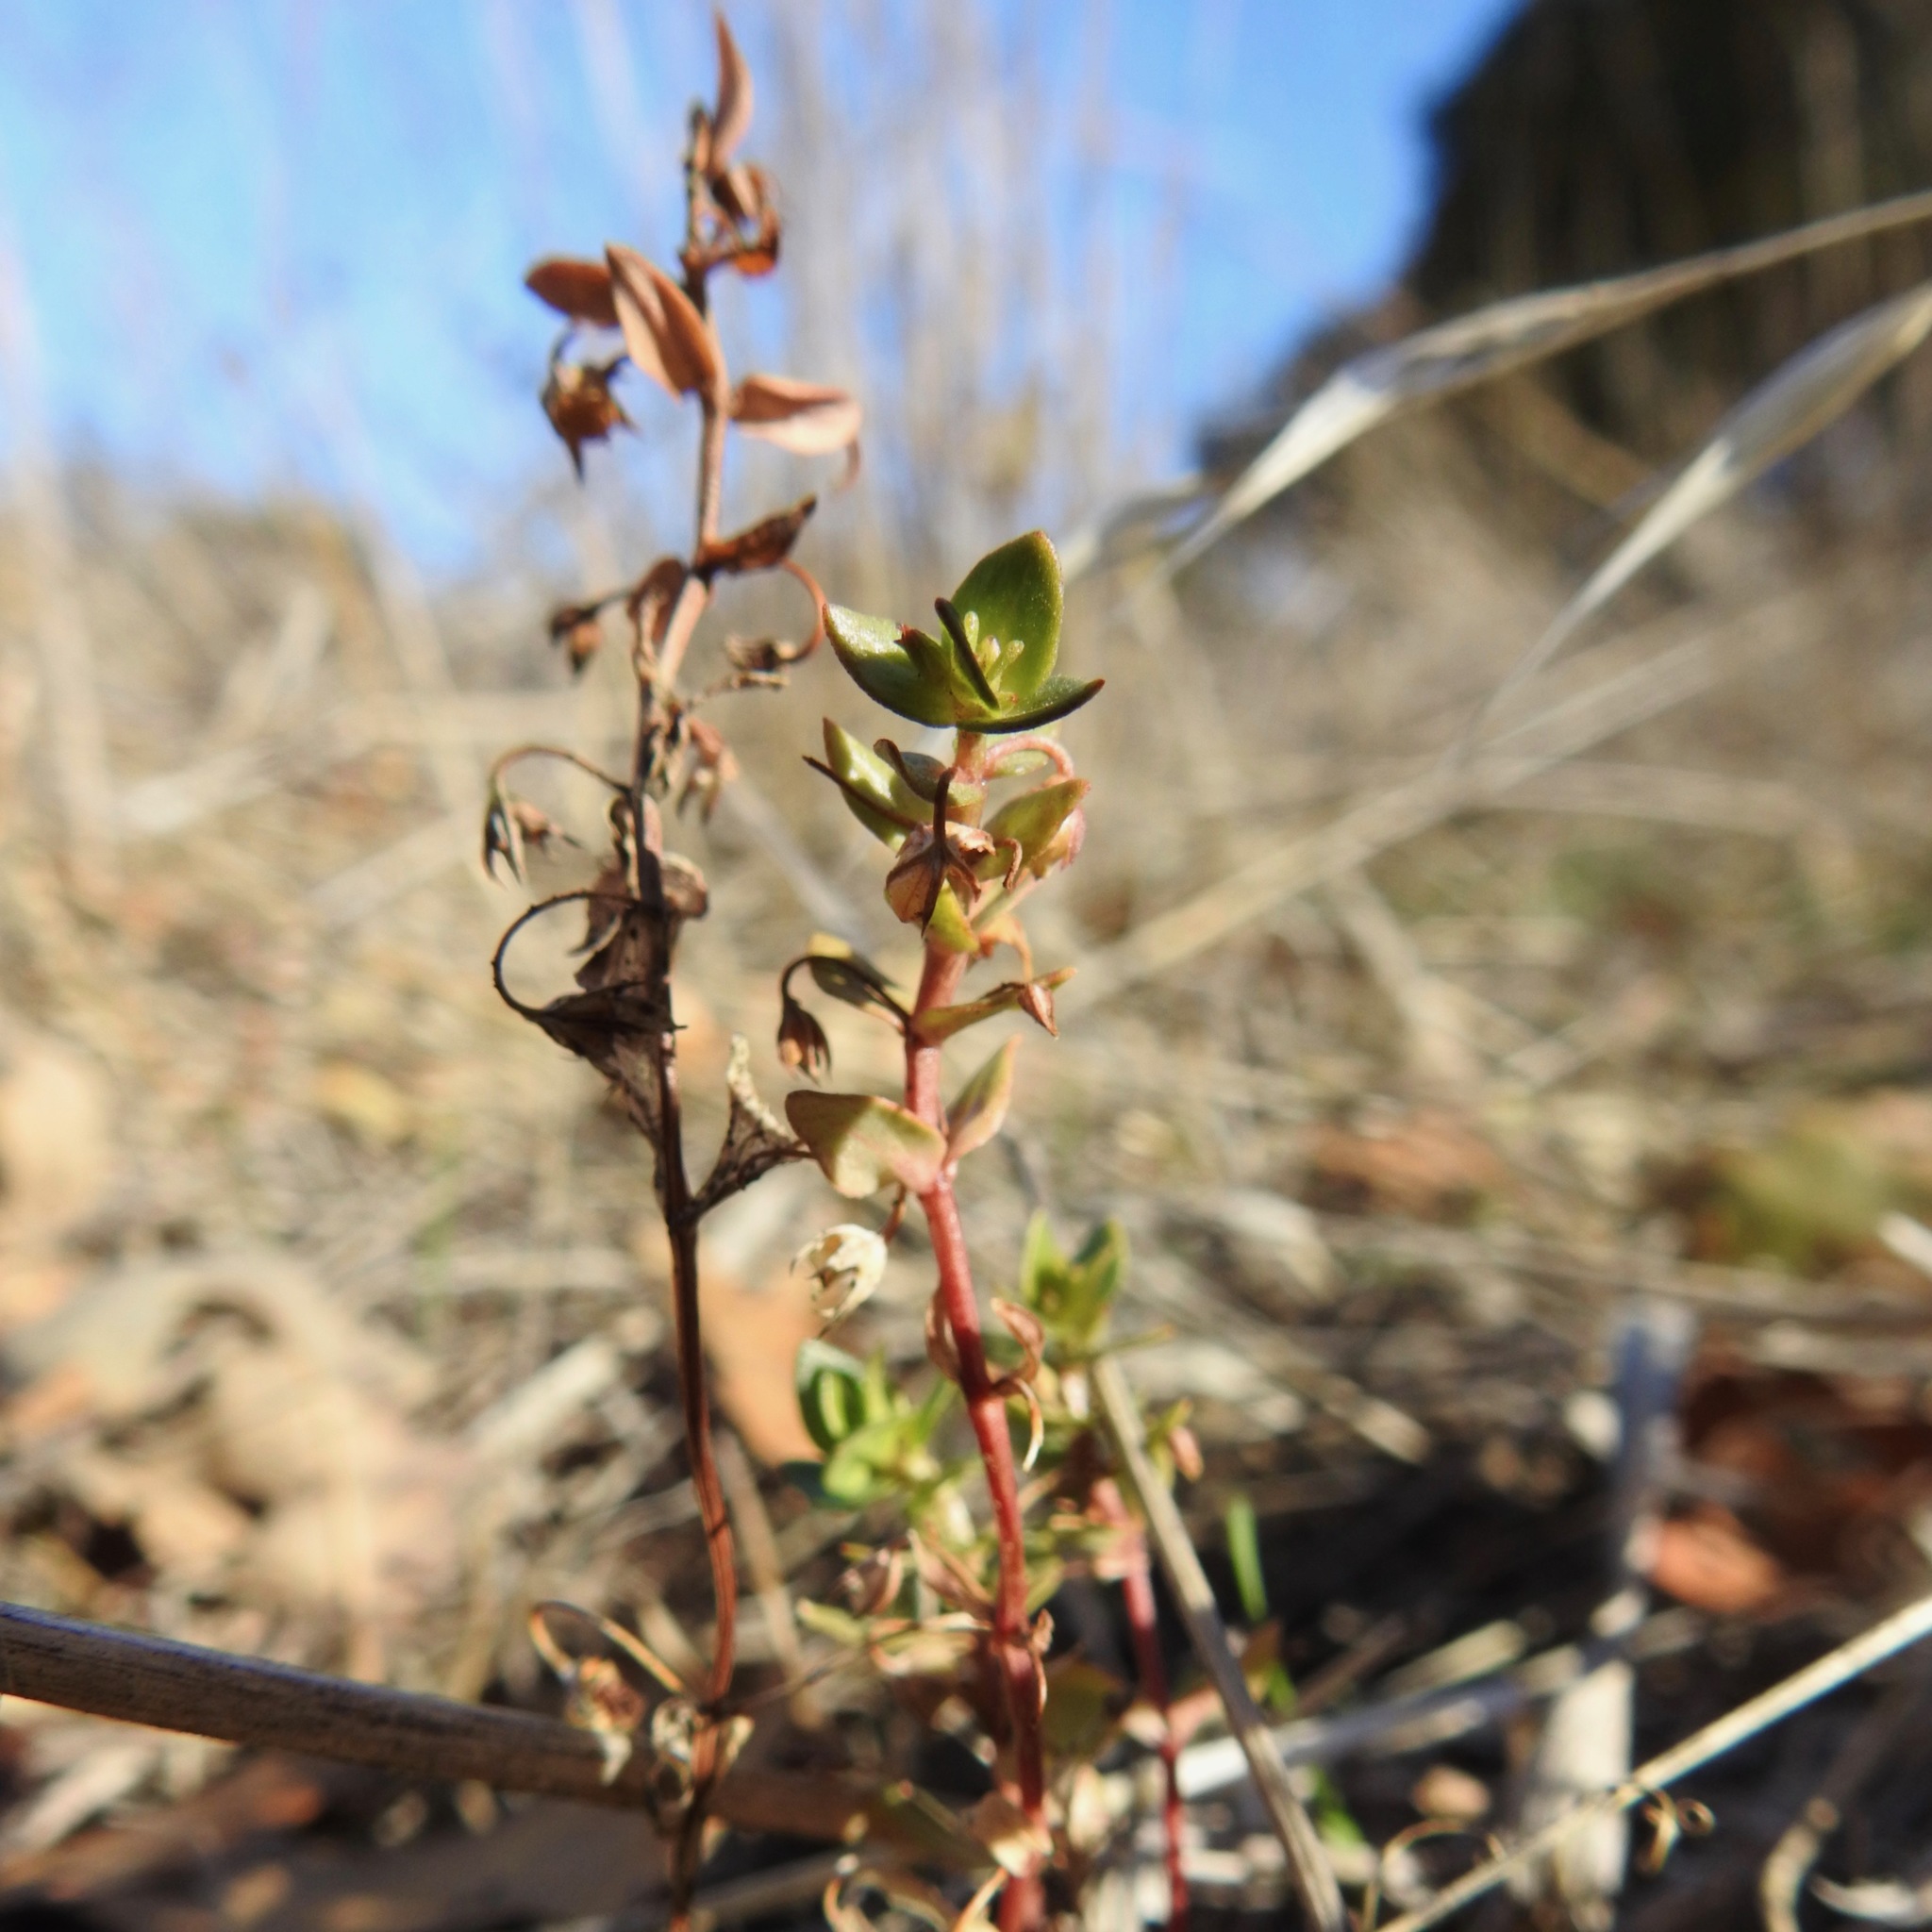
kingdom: Plantae
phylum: Tracheophyta
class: Magnoliopsida
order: Ericales
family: Primulaceae
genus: Lysimachia
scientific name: Lysimachia arvensis
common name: Scarlet pimpernel
